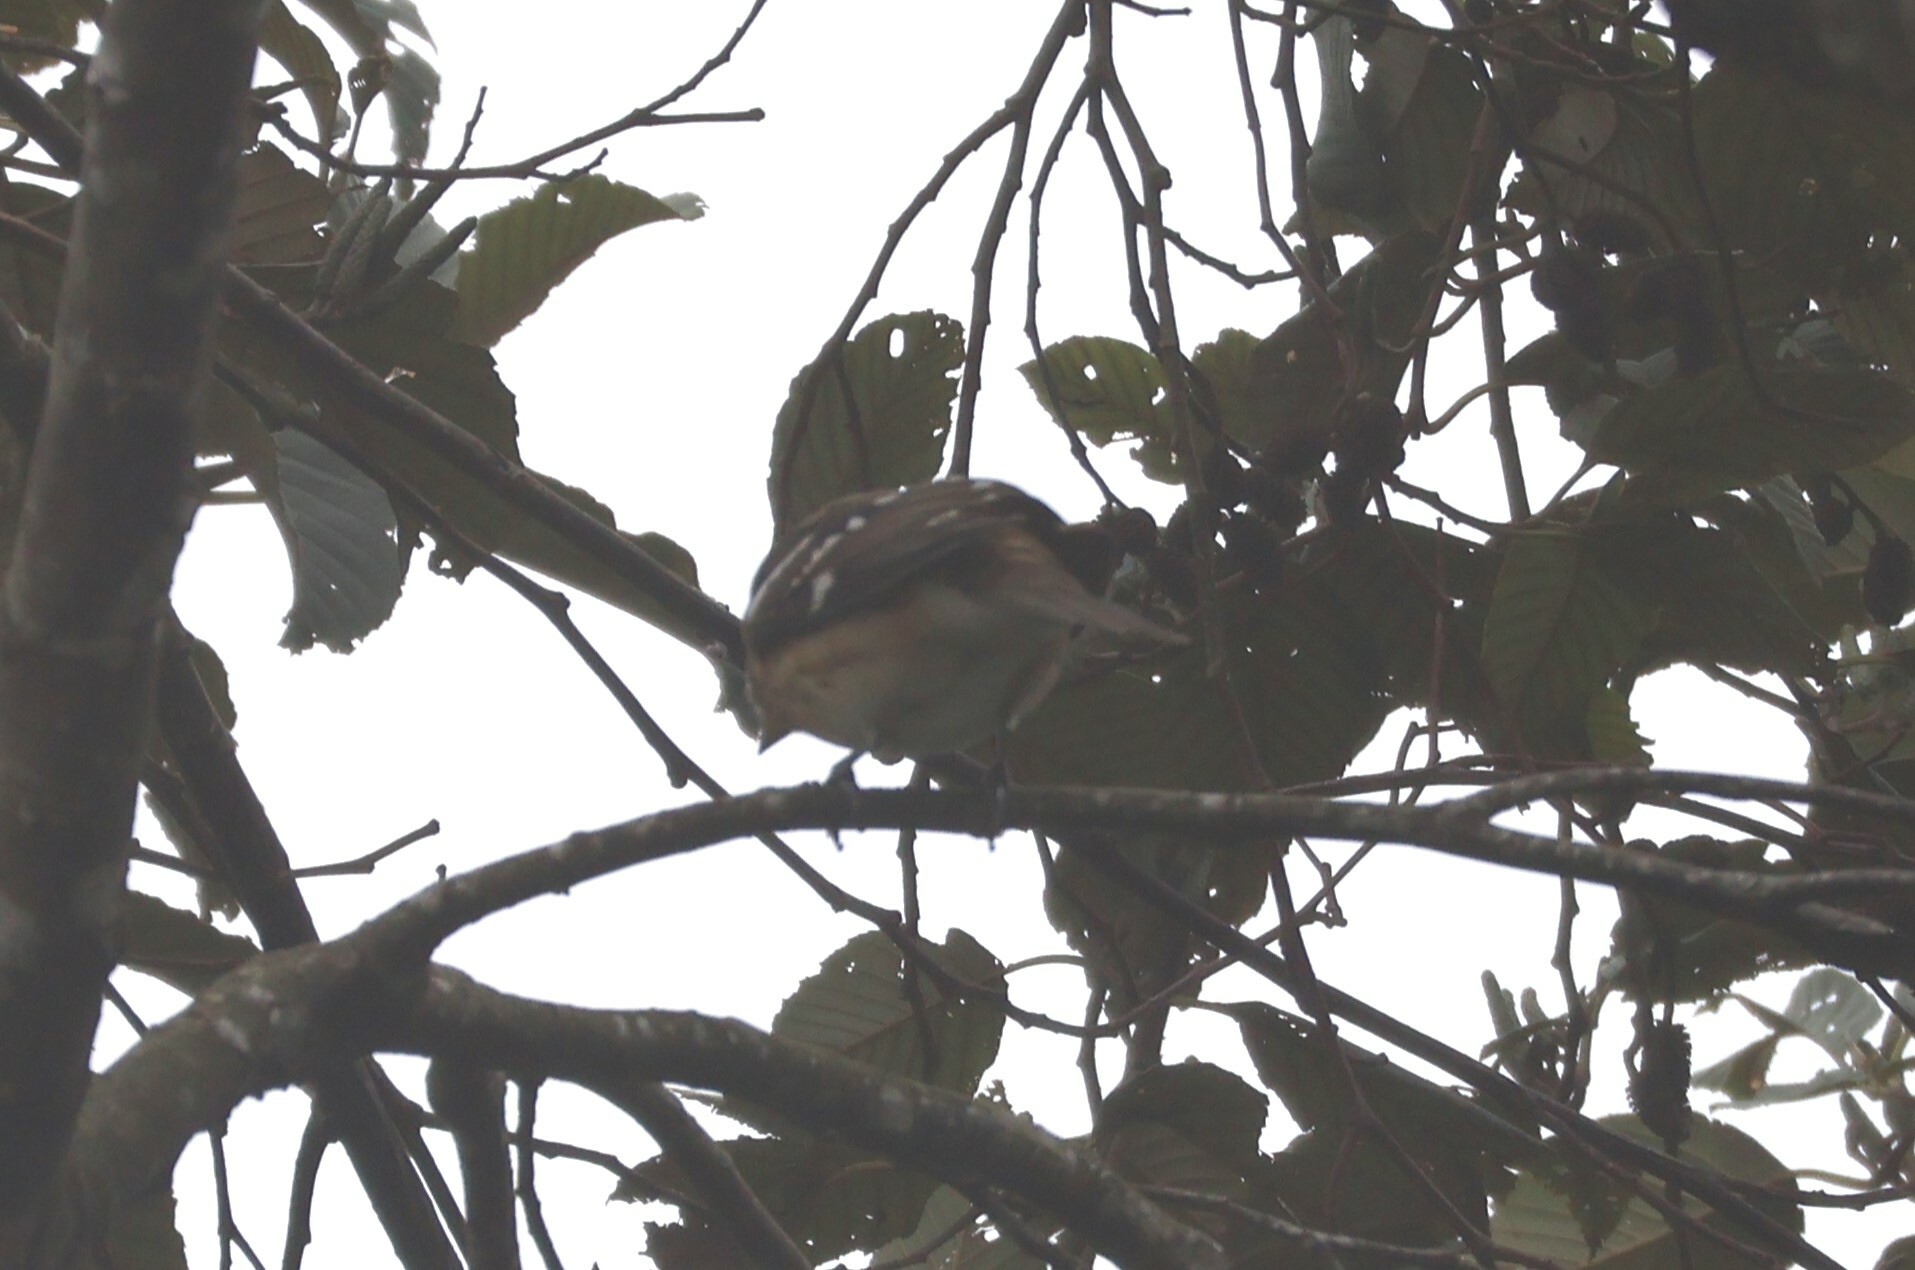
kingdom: Animalia
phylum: Chordata
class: Aves
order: Passeriformes
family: Cardinalidae
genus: Pheucticus
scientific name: Pheucticus ludovicianus
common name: Rose-breasted grosbeak
